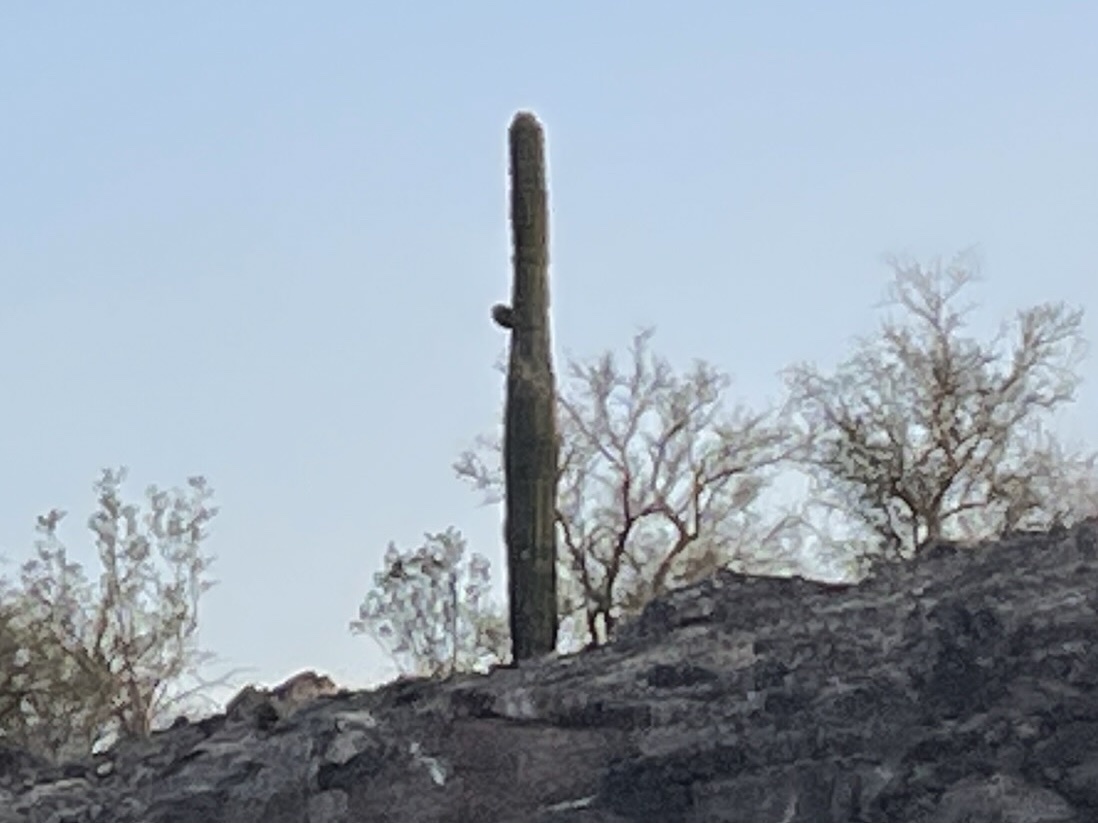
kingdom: Plantae
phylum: Tracheophyta
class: Magnoliopsida
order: Caryophyllales
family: Cactaceae
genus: Carnegiea
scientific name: Carnegiea gigantea
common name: Saguaro
